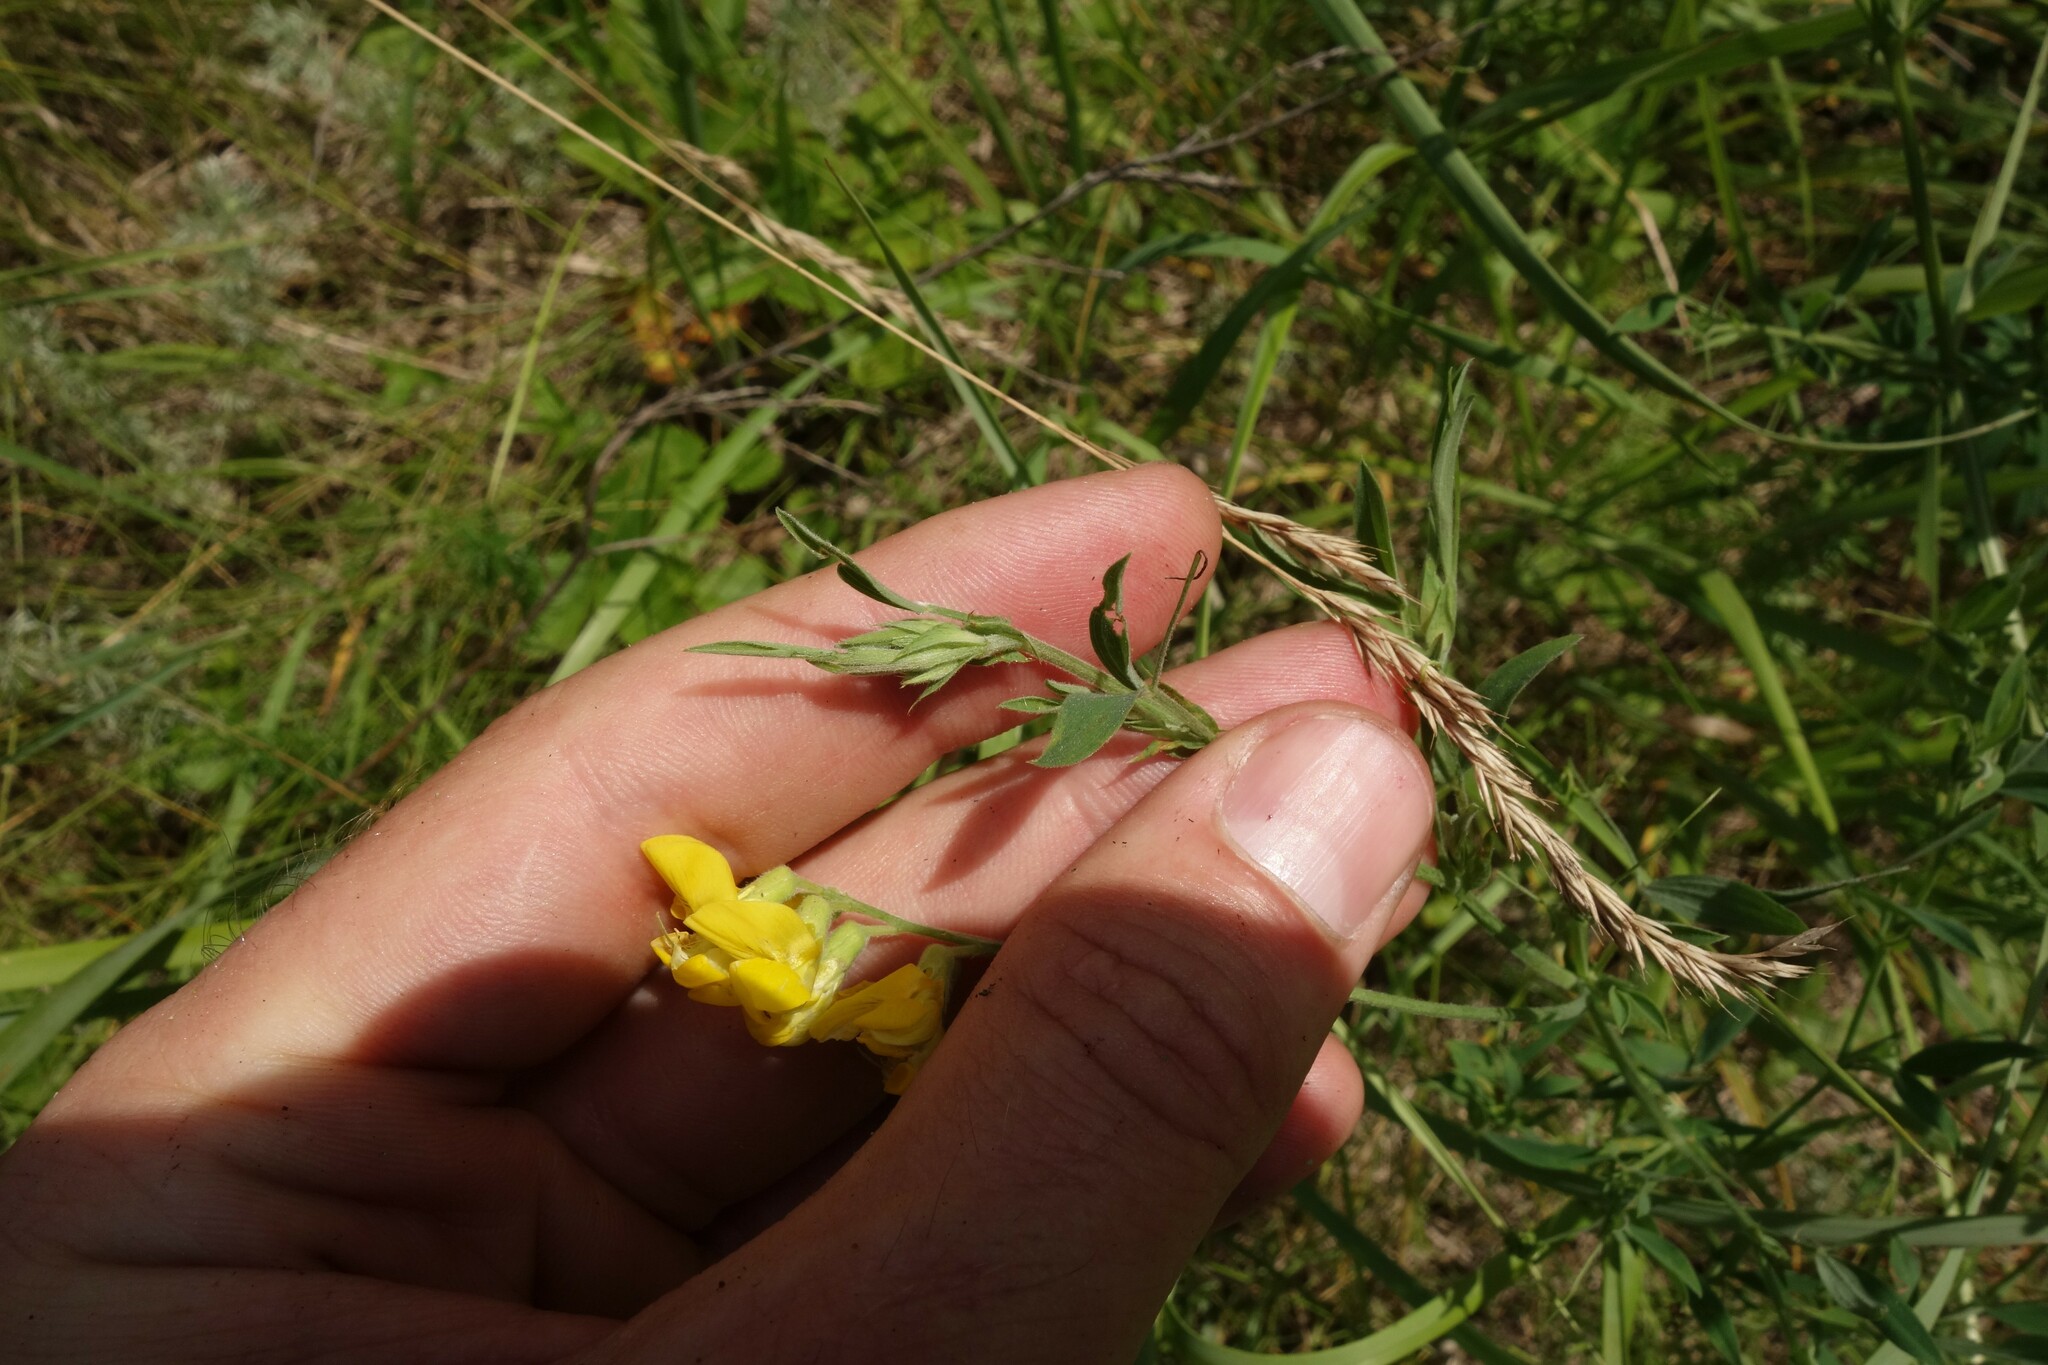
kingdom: Plantae
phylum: Tracheophyta
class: Magnoliopsida
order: Fabales
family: Fabaceae
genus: Lathyrus
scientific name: Lathyrus pratensis
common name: Meadow vetchling
